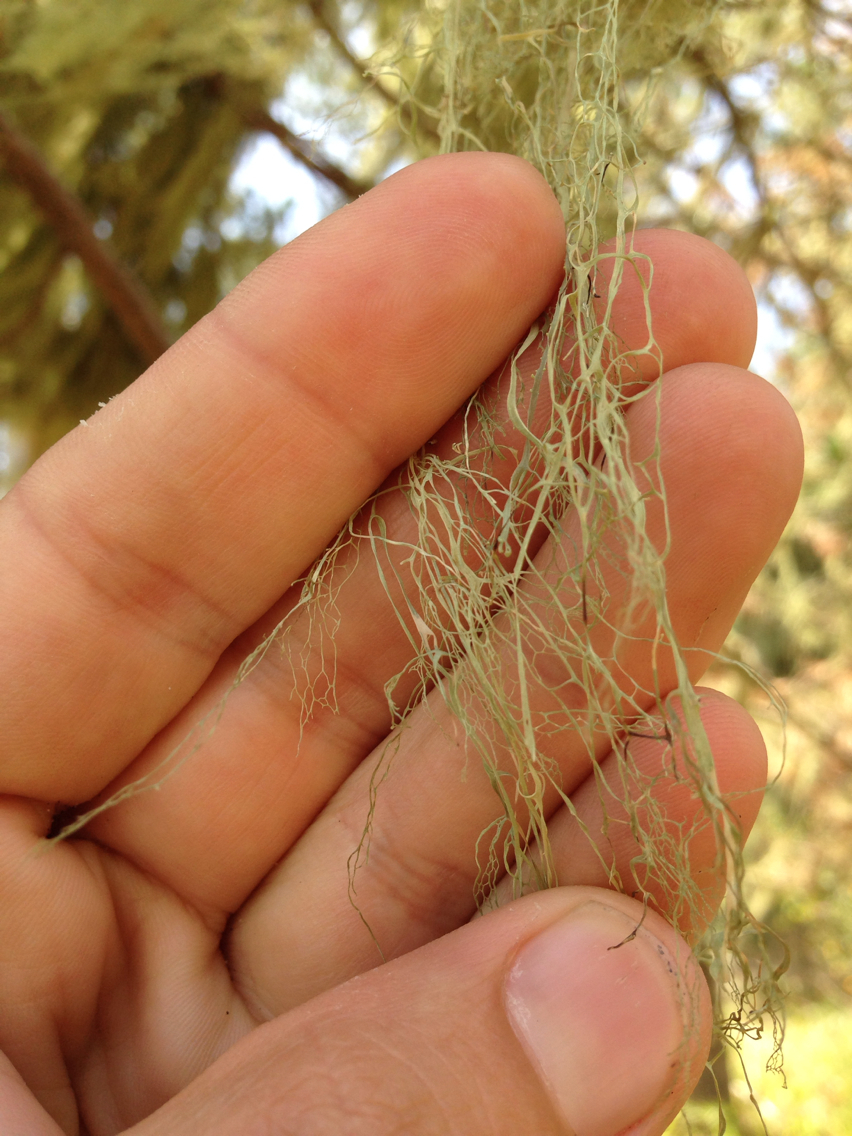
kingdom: Fungi
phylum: Ascomycota
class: Lecanoromycetes
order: Lecanorales
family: Ramalinaceae
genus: Ramalina
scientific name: Ramalina menziesii
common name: Lace lichen
